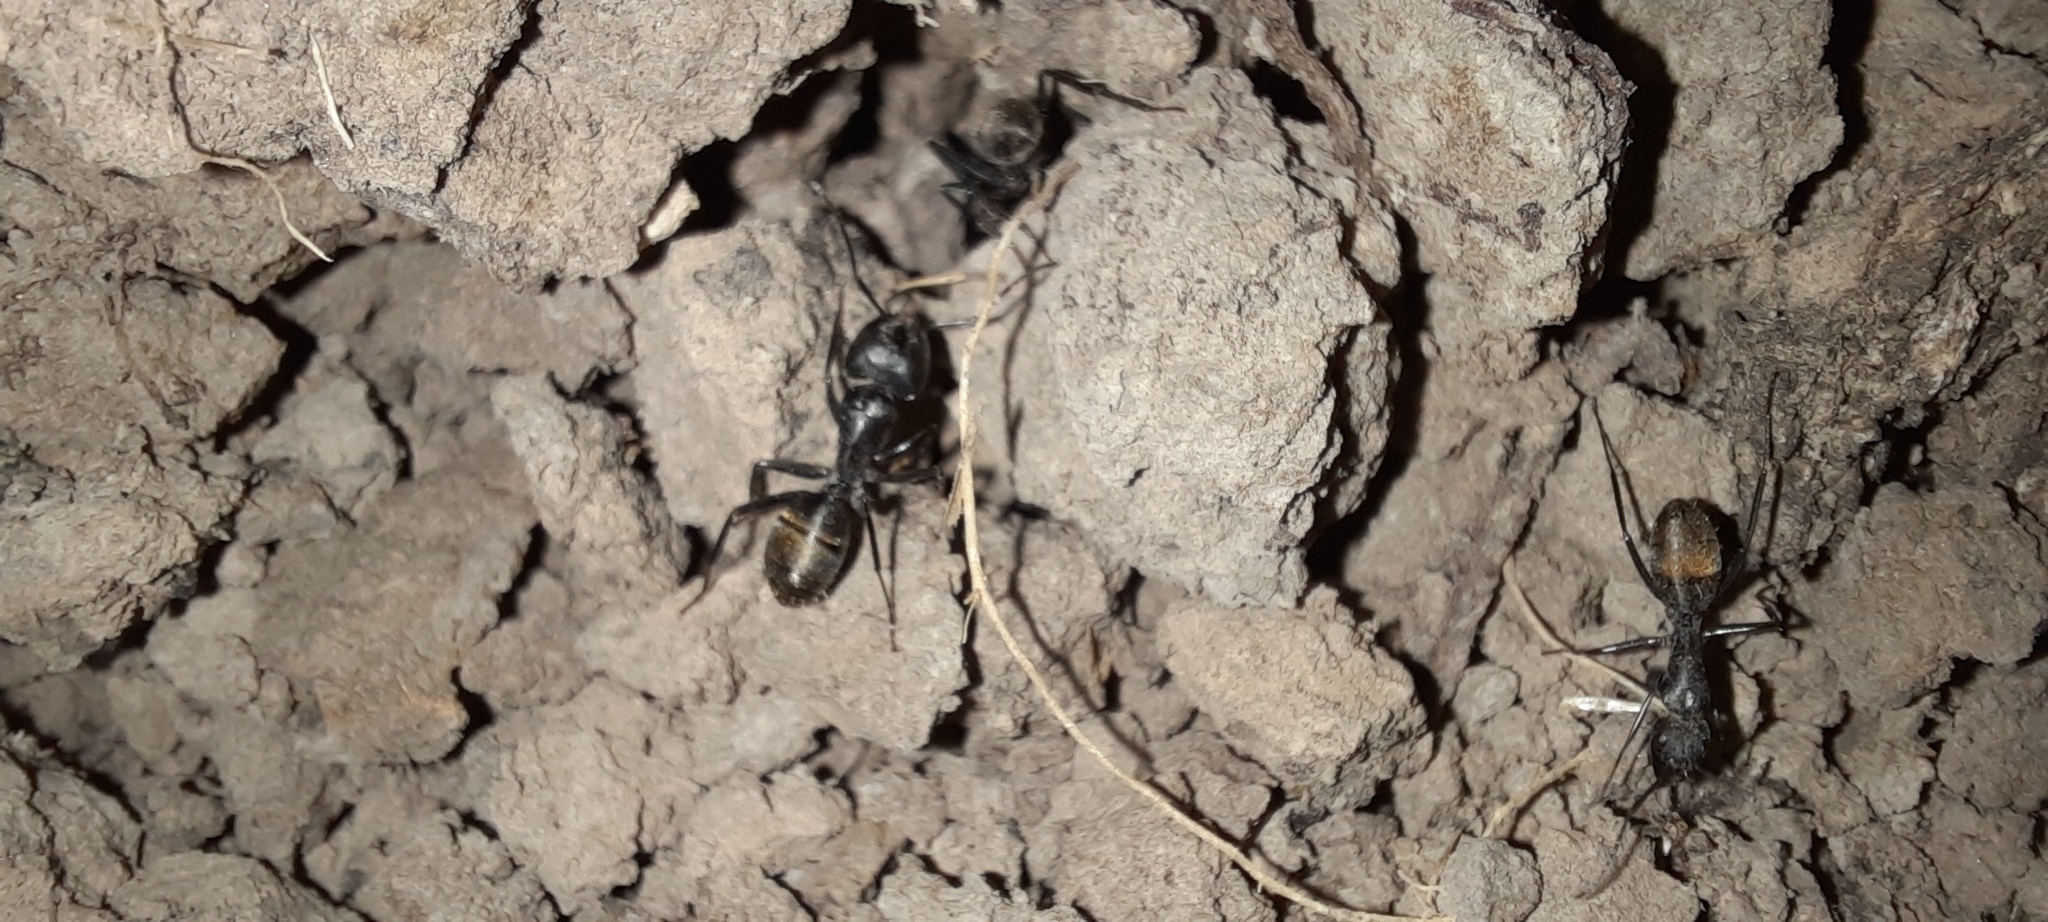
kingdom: Animalia
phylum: Arthropoda
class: Insecta
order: Hymenoptera
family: Formicidae
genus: Camponotus
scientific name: Camponotus aeneopilosus
